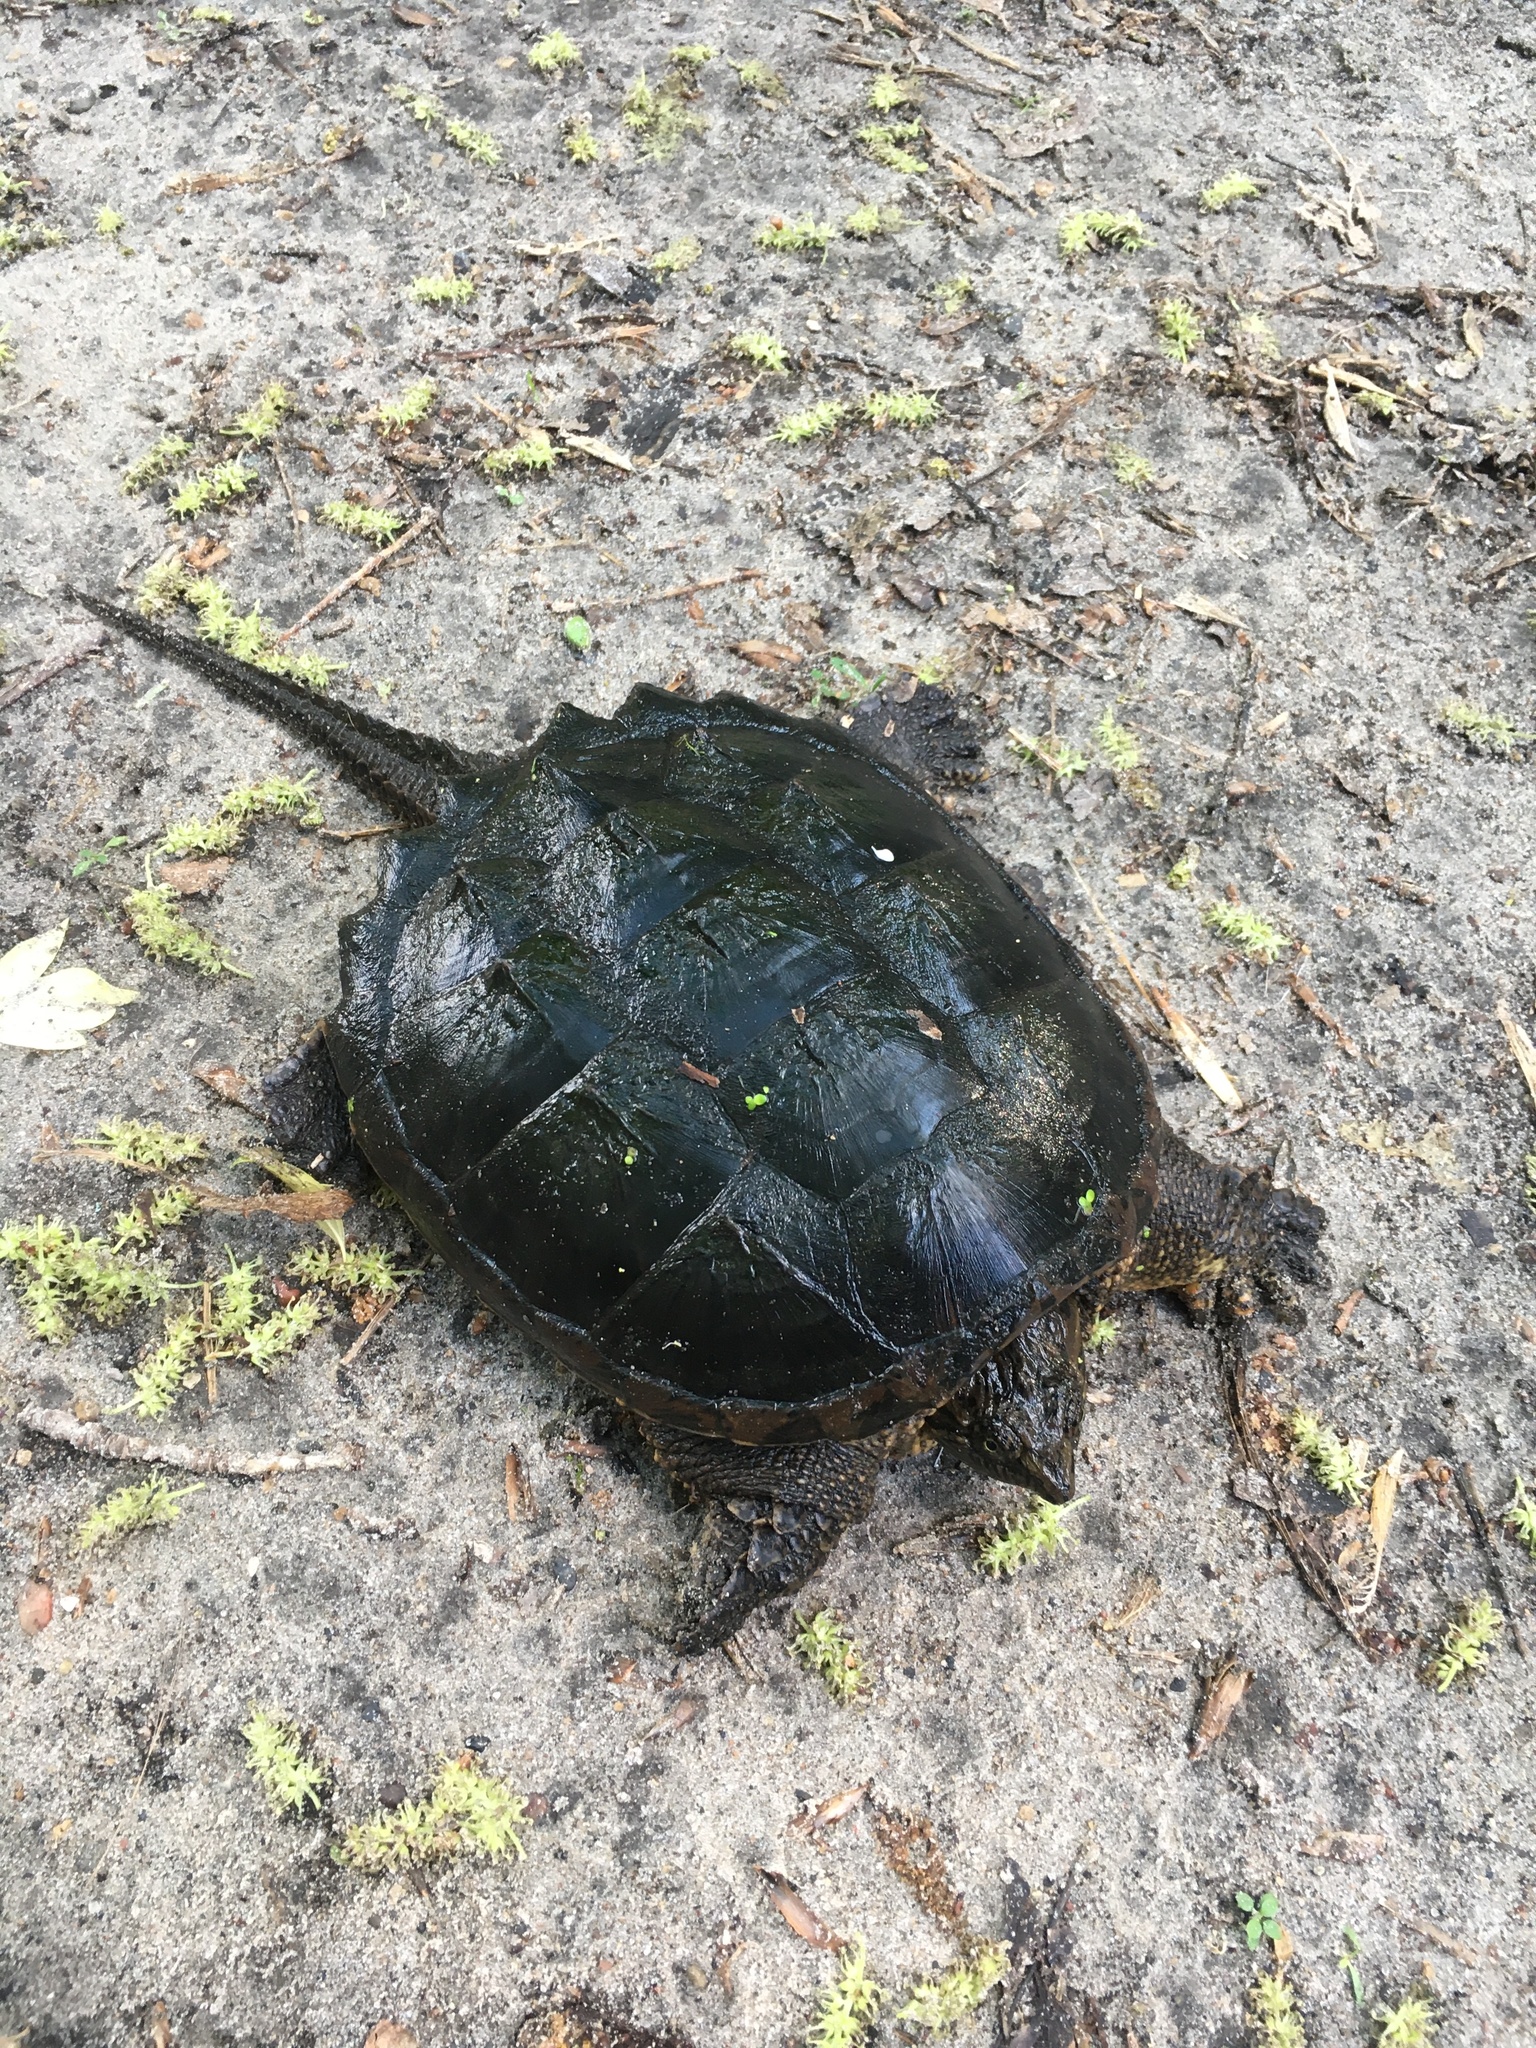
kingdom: Animalia
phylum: Chordata
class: Testudines
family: Chelydridae
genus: Chelydra
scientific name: Chelydra serpentina
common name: Common snapping turtle
